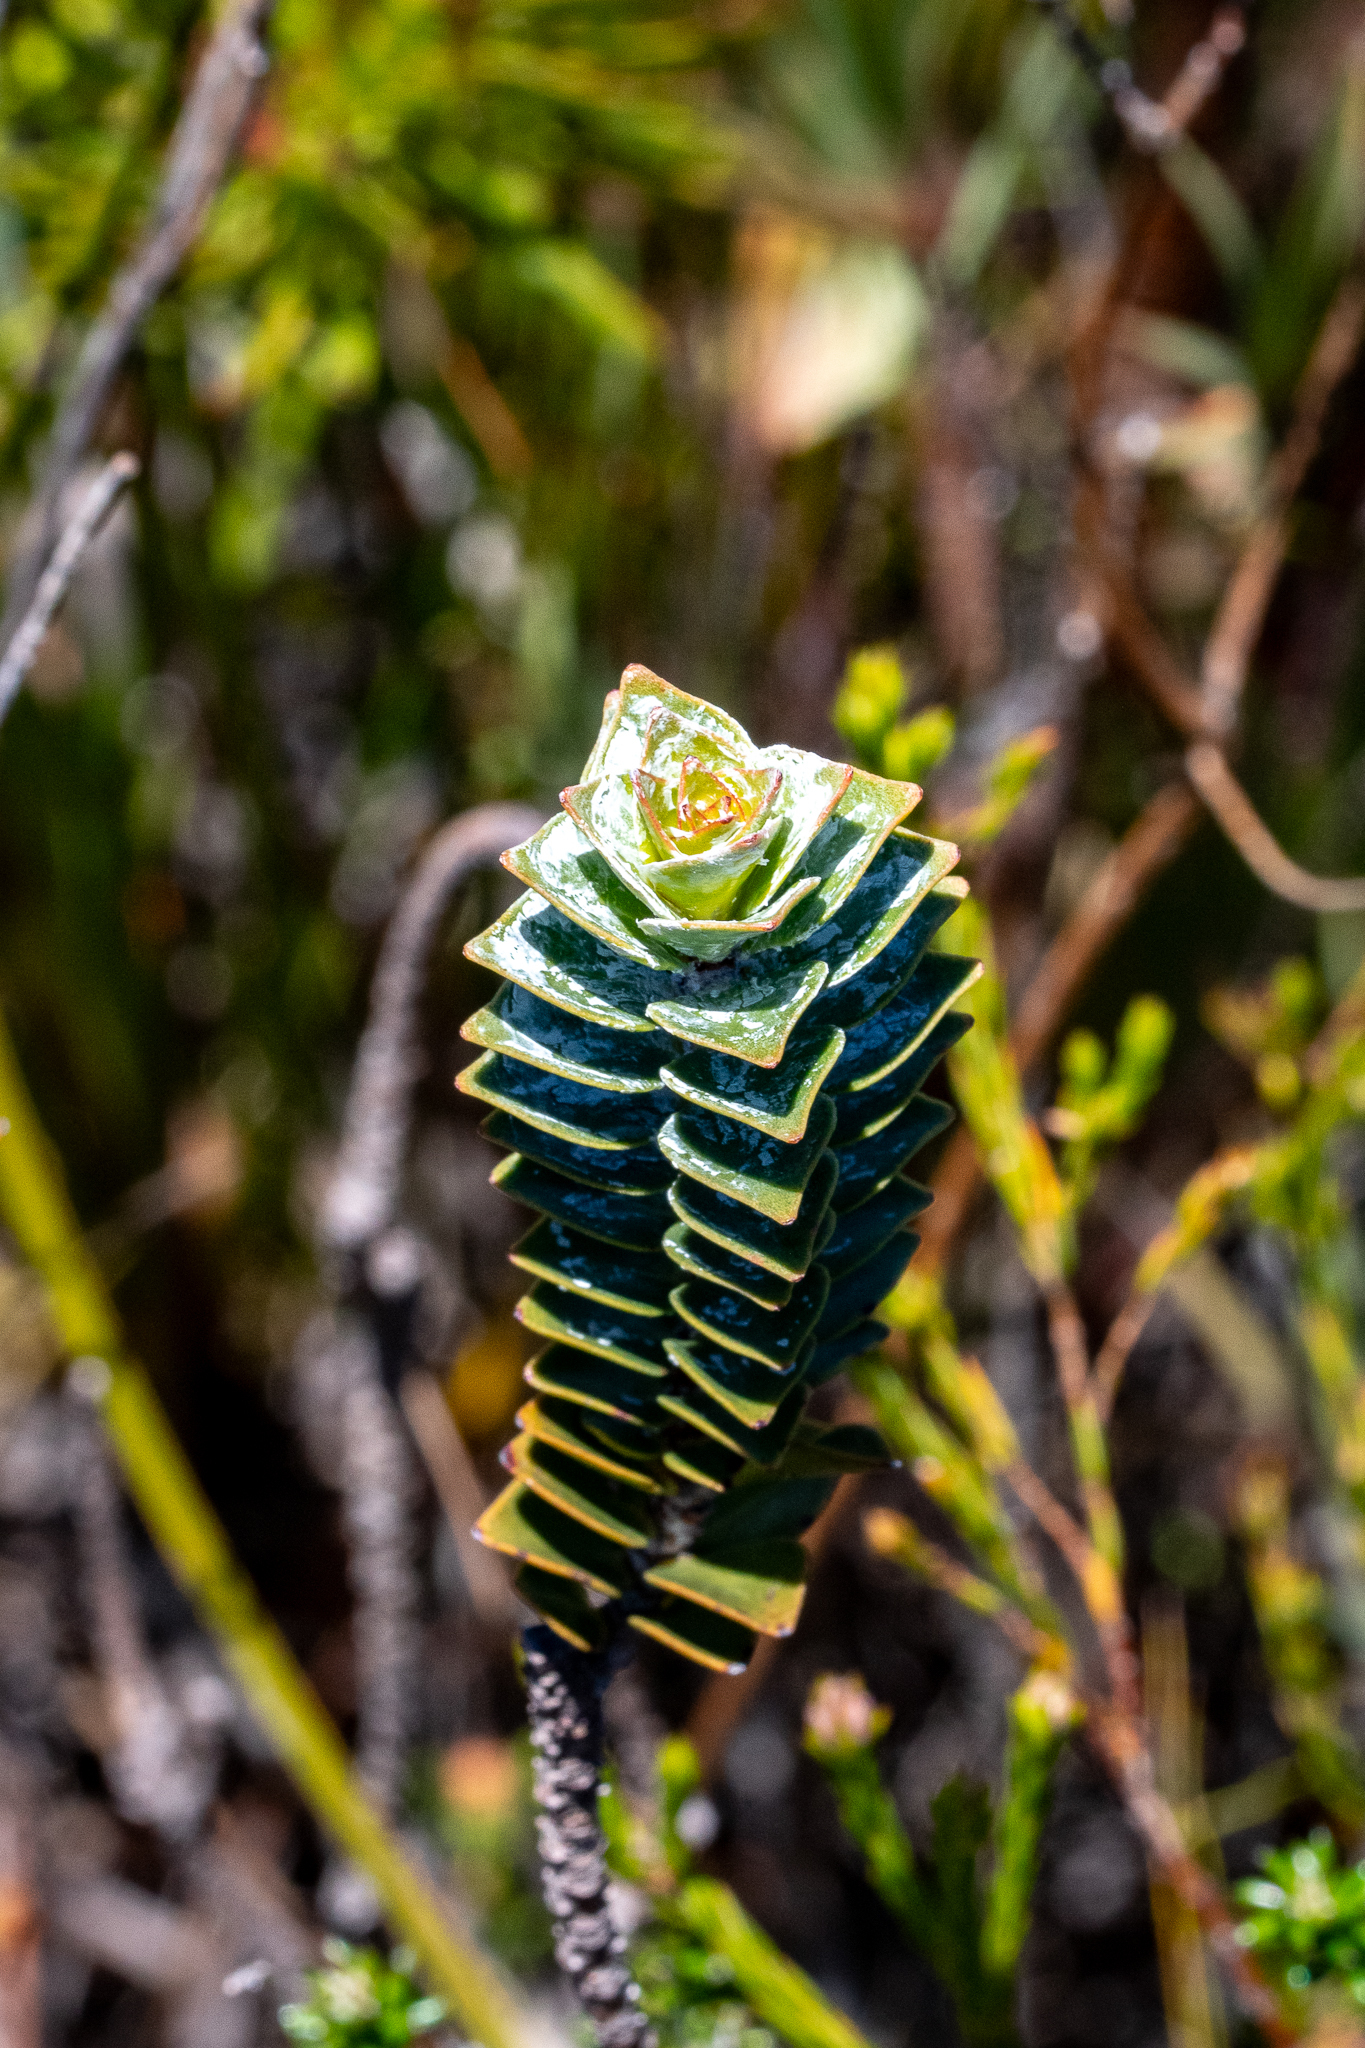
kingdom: Plantae
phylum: Tracheophyta
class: Magnoliopsida
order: Myrtales
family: Penaeaceae
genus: Saltera
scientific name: Saltera sarcocolla
